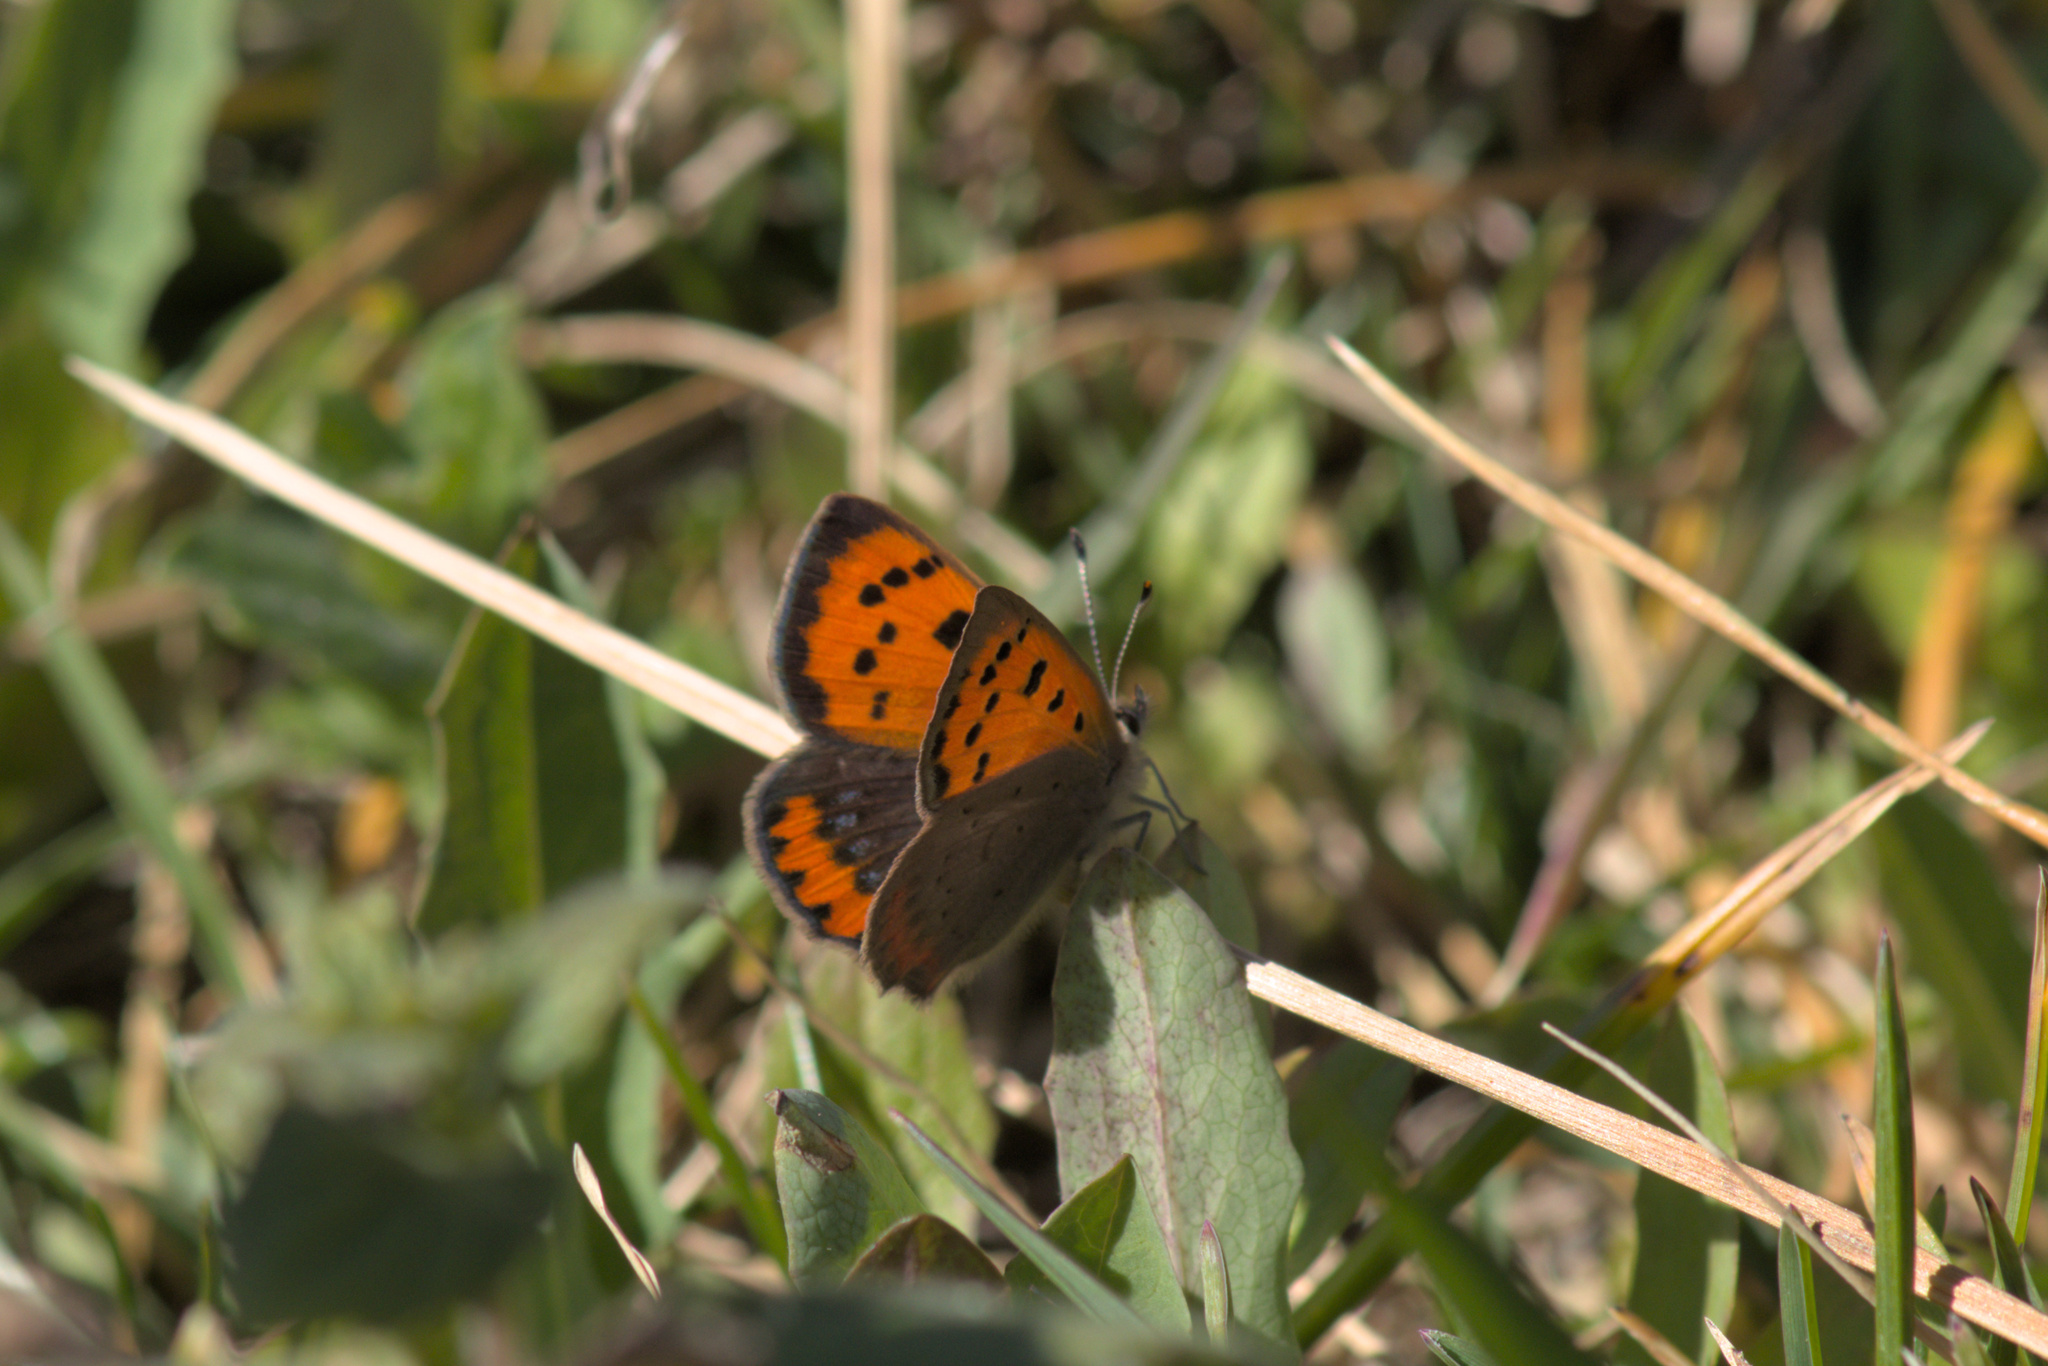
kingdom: Animalia
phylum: Arthropoda
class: Insecta
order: Lepidoptera
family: Lycaenidae
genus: Lycaena
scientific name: Lycaena phlaeas
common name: Small copper
